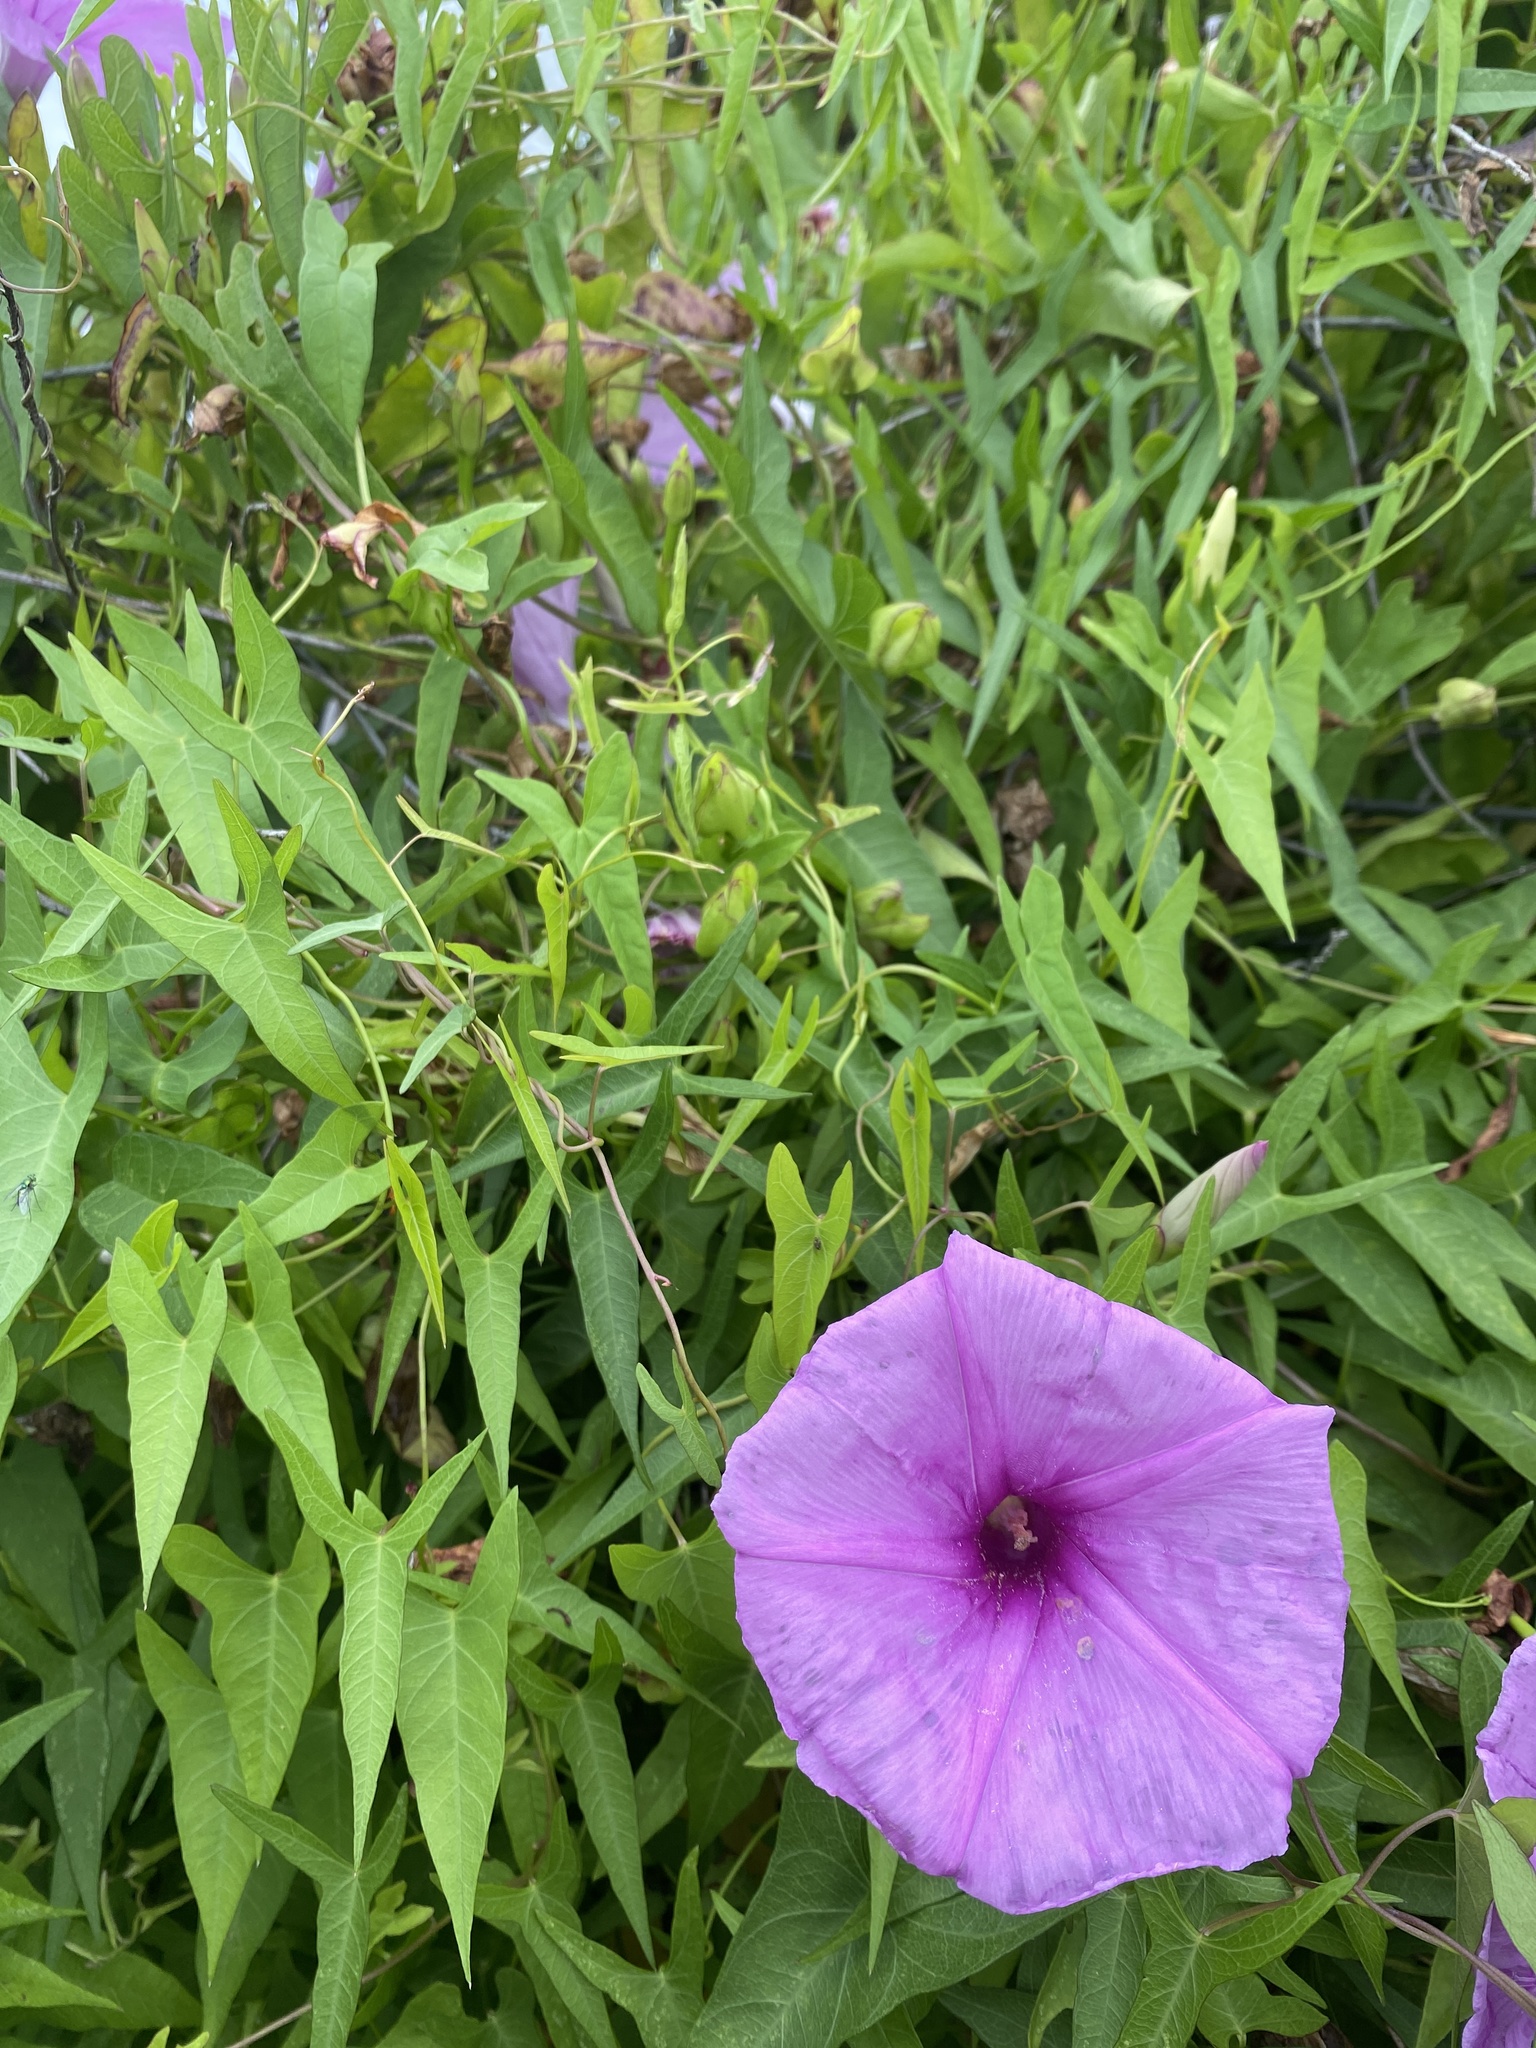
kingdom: Plantae
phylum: Tracheophyta
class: Magnoliopsida
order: Solanales
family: Convolvulaceae
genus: Ipomoea
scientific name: Ipomoea sagittata
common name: Saltmarsh morning glory
